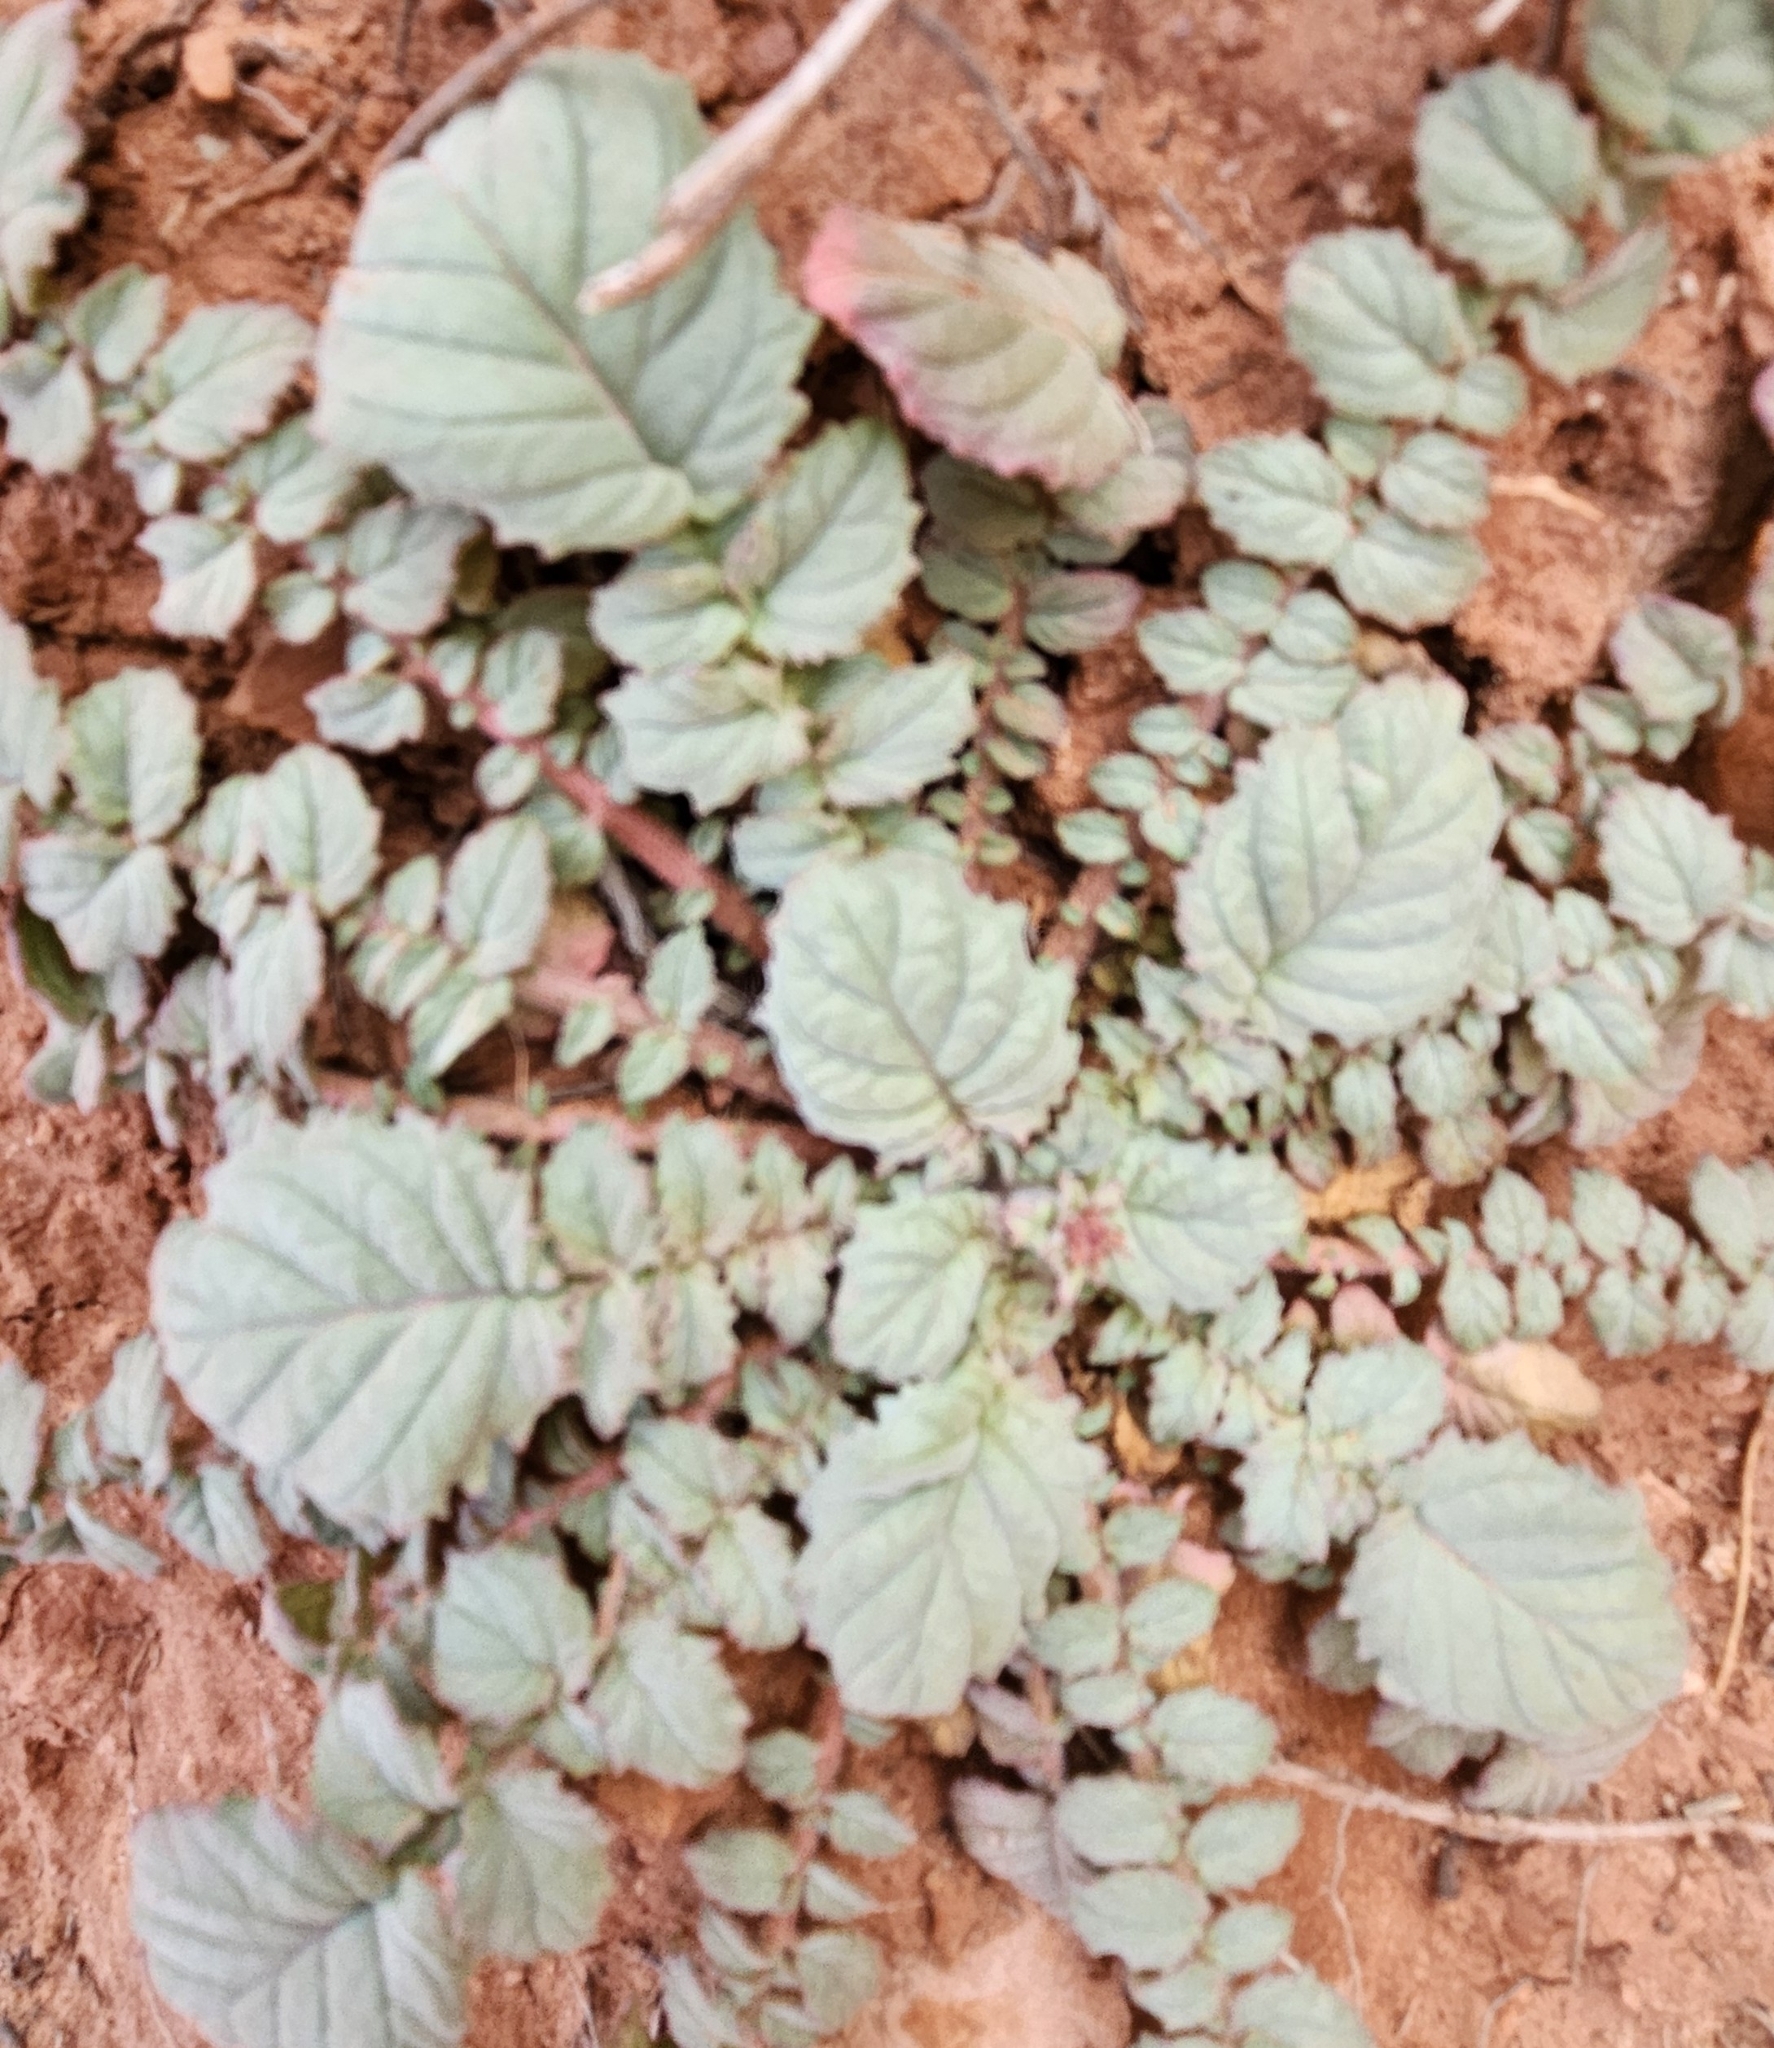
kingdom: Plantae
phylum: Tracheophyta
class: Magnoliopsida
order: Myrtales
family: Onagraceae
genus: Chylismia
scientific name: Chylismia multijuga
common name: Froststem suncup
